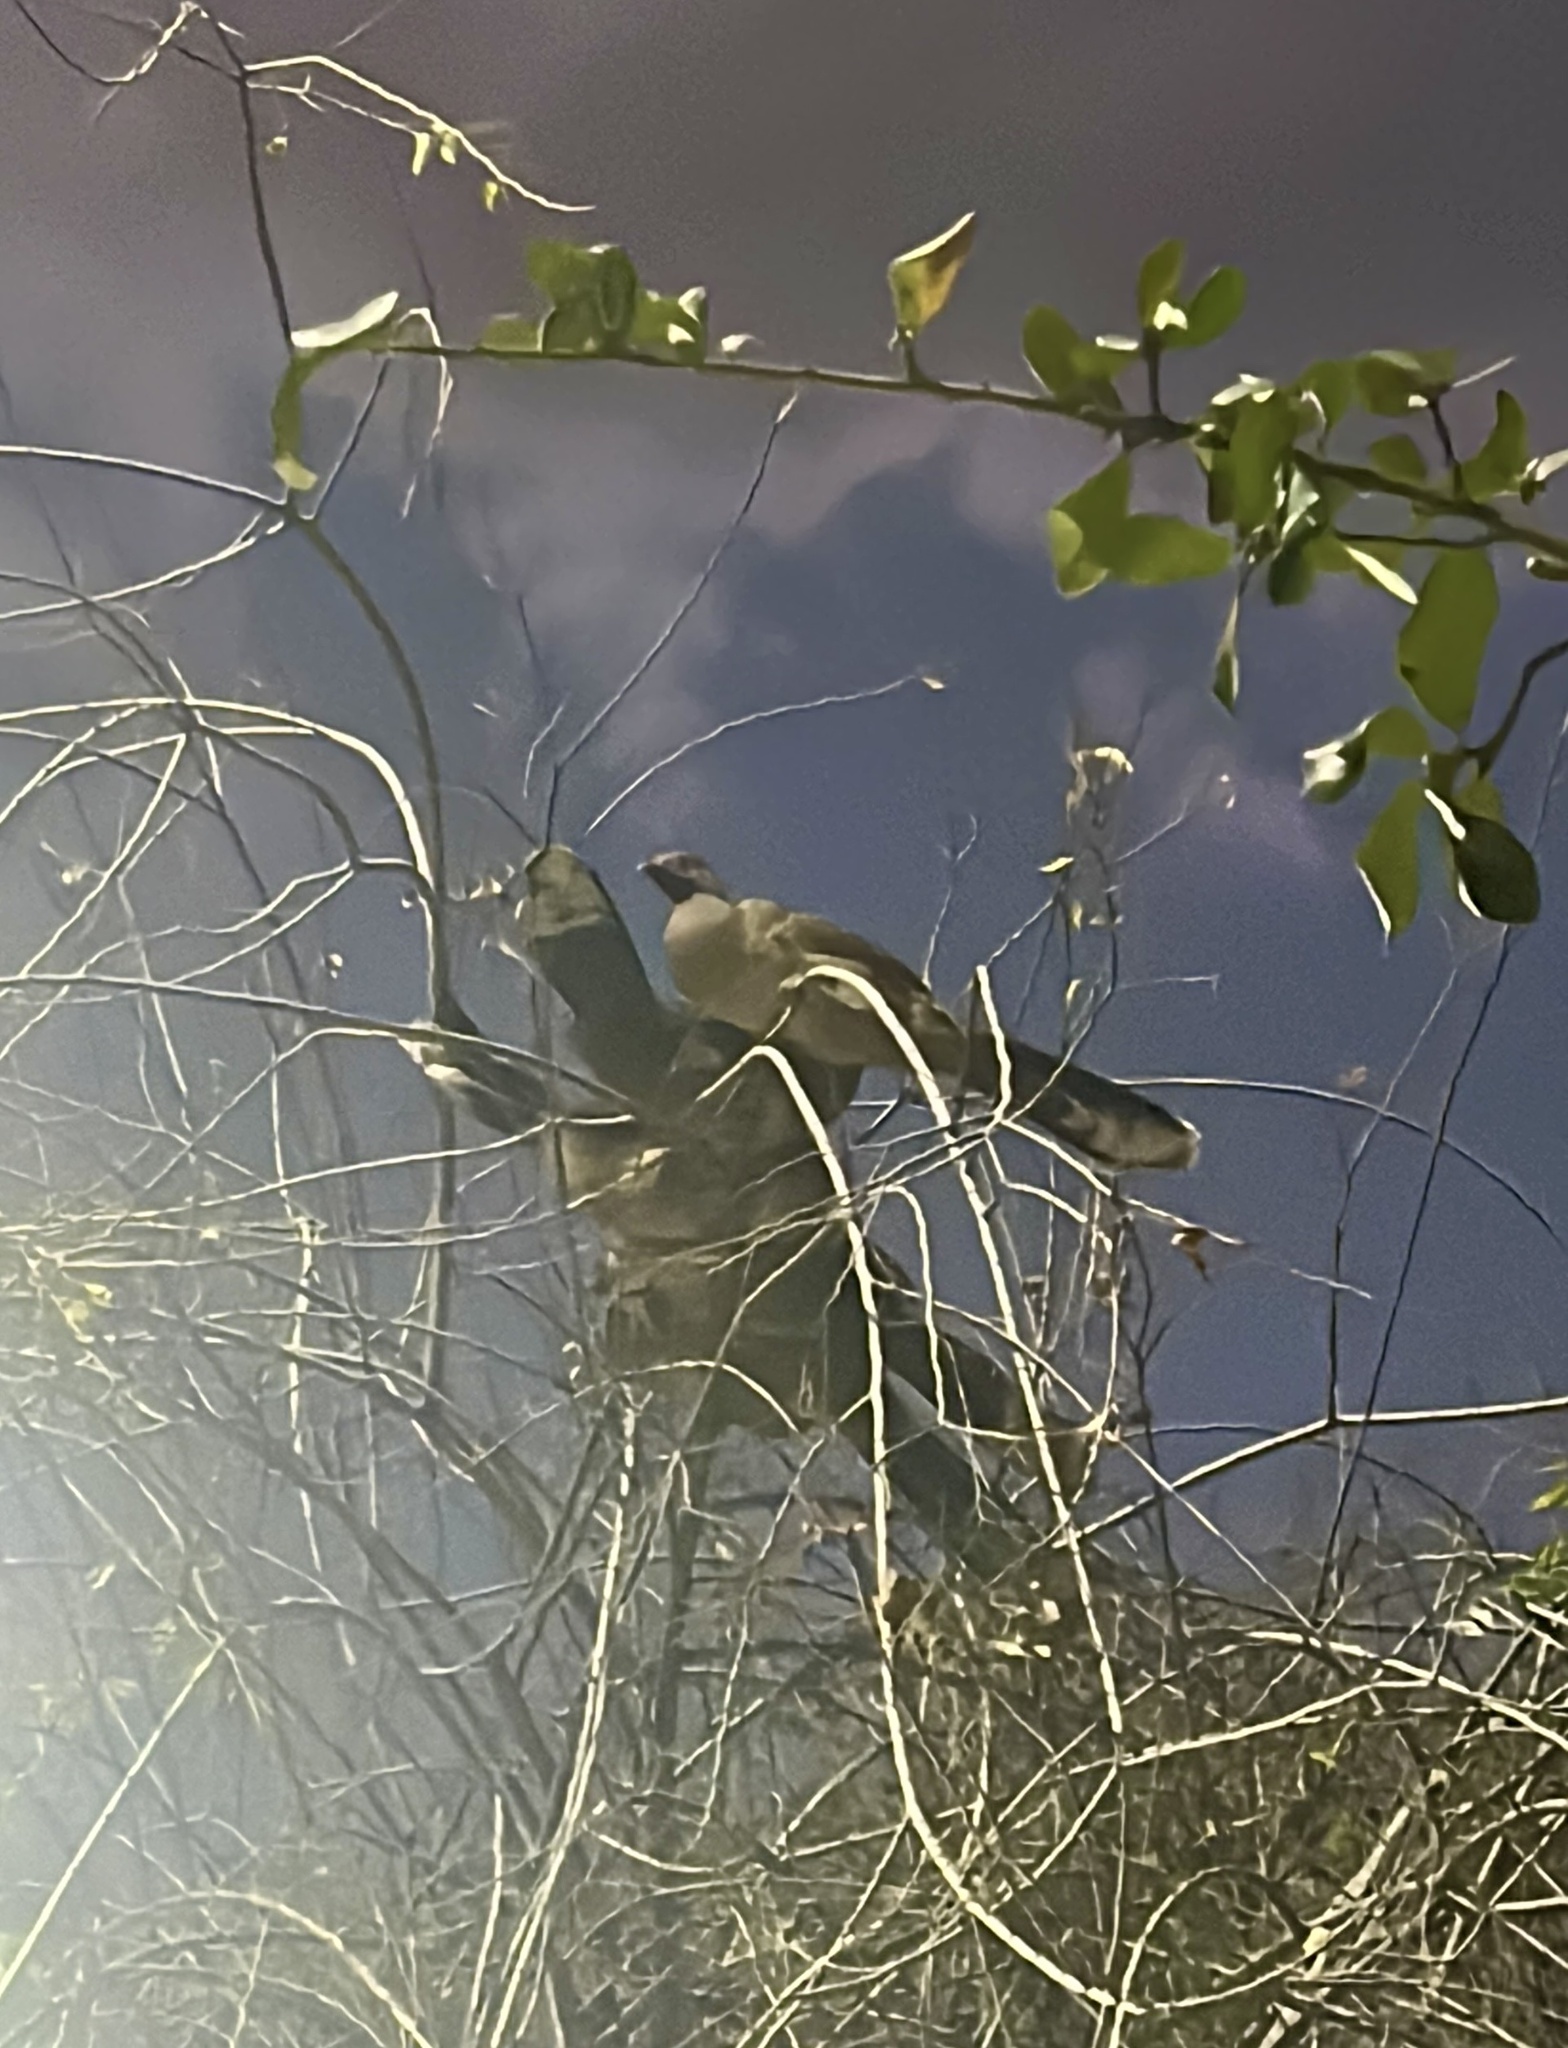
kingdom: Animalia
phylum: Chordata
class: Aves
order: Galliformes
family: Cracidae
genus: Ortalis
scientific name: Ortalis vetula
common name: Plain chachalaca
